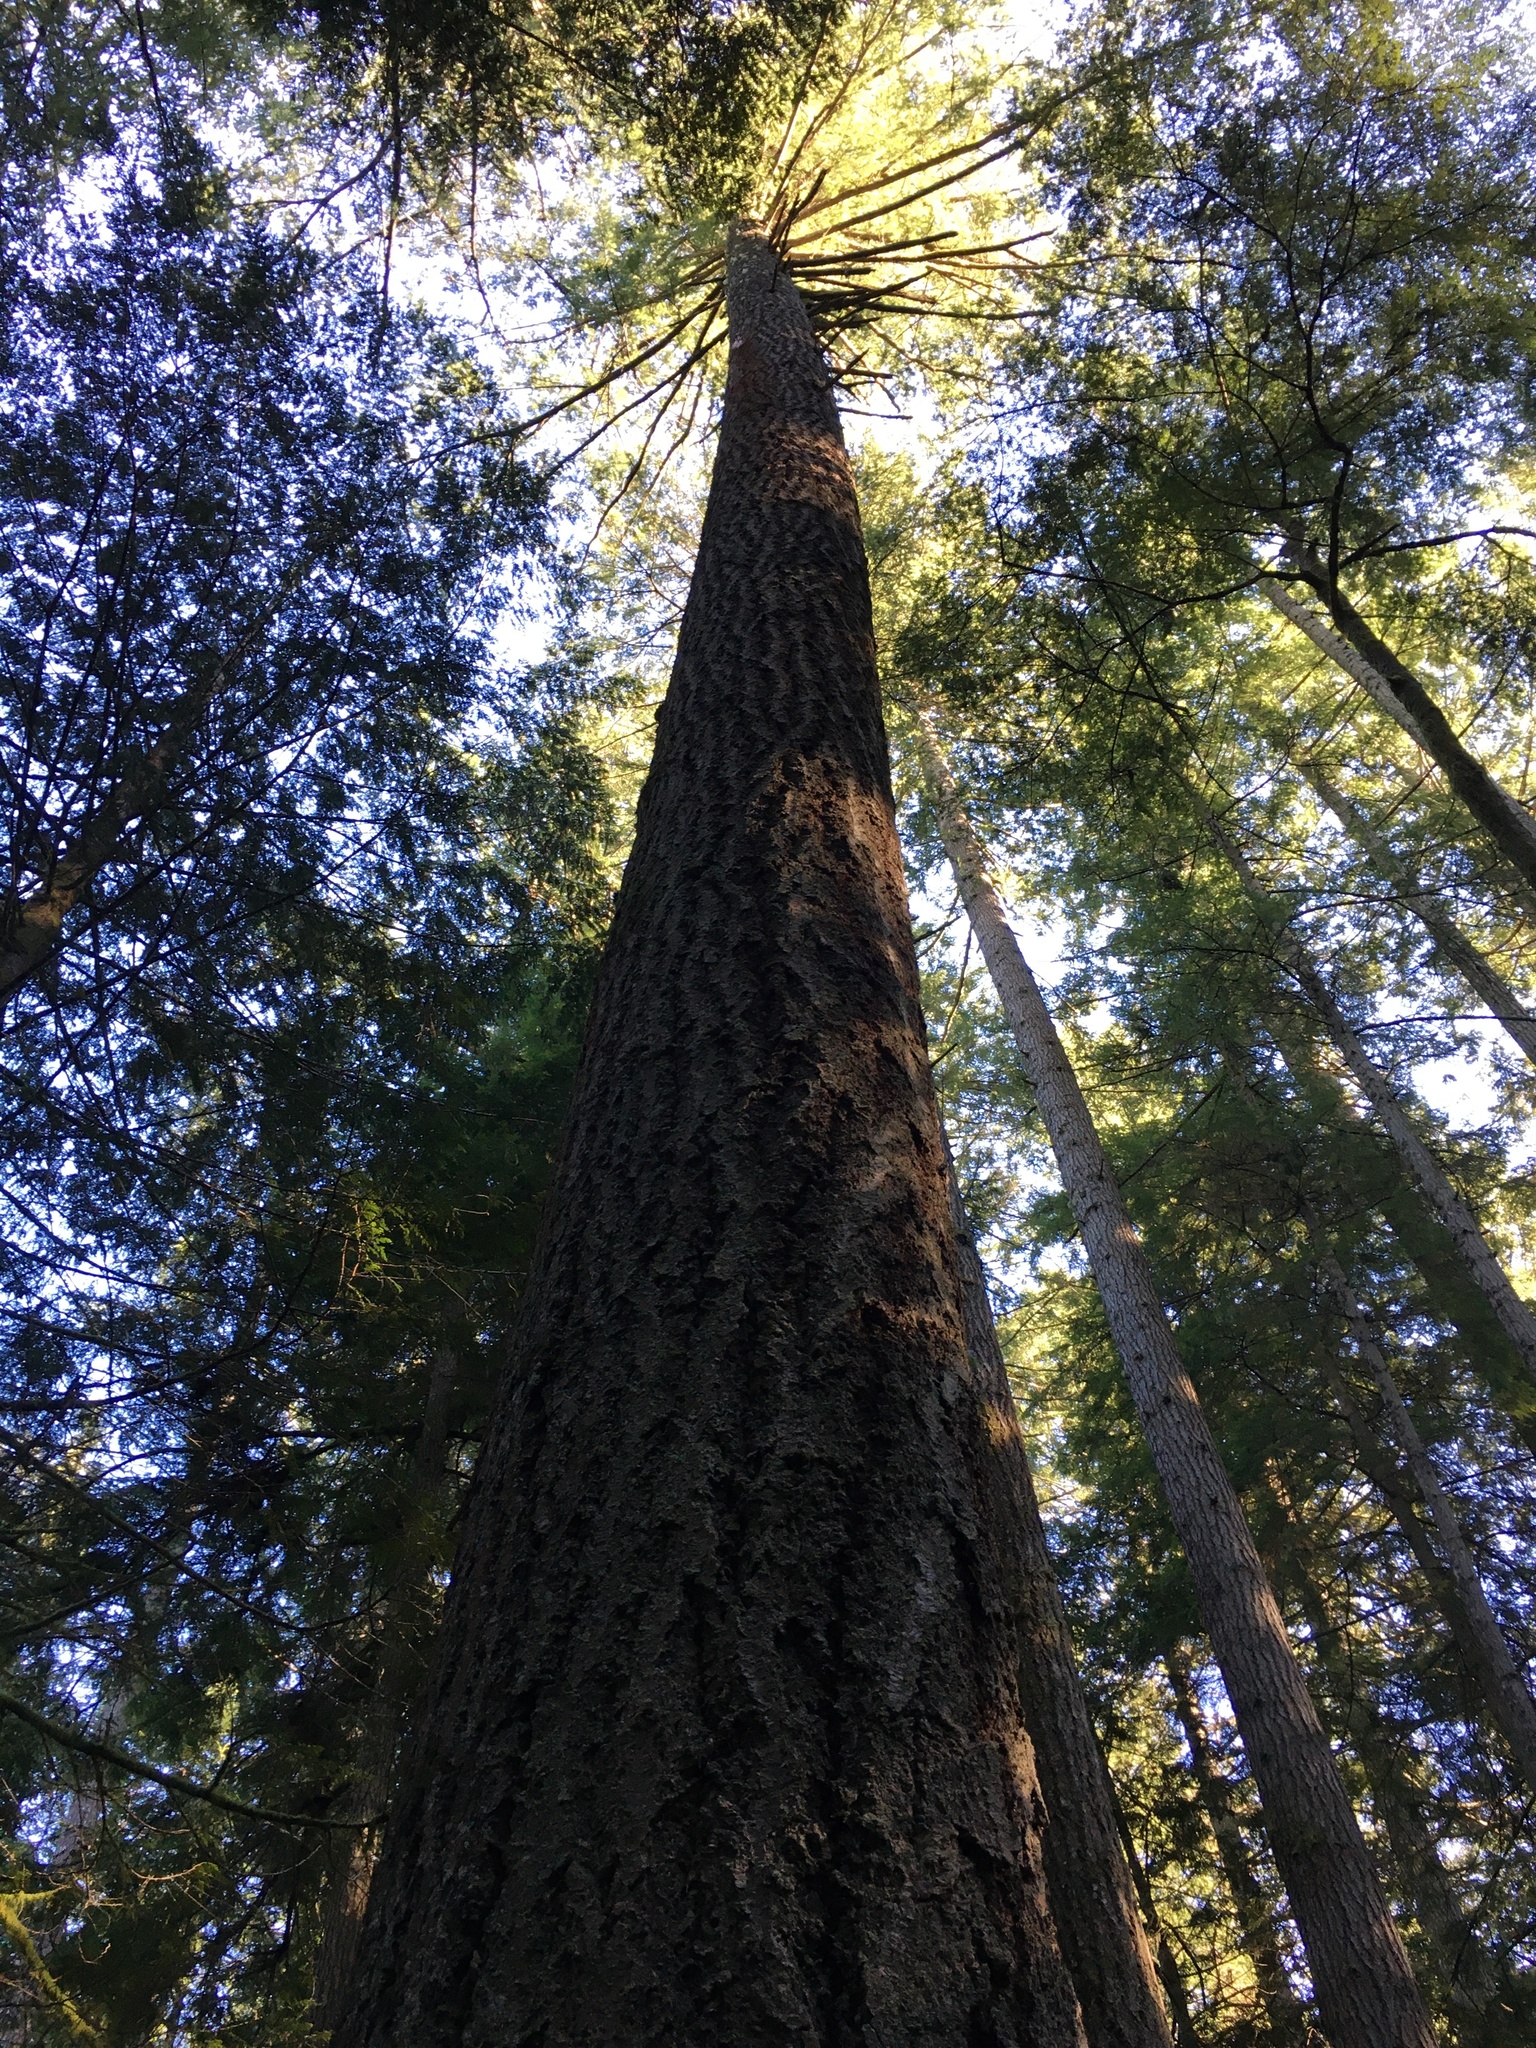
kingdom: Plantae
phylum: Tracheophyta
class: Pinopsida
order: Pinales
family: Pinaceae
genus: Pseudotsuga
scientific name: Pseudotsuga menziesii
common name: Douglas fir
